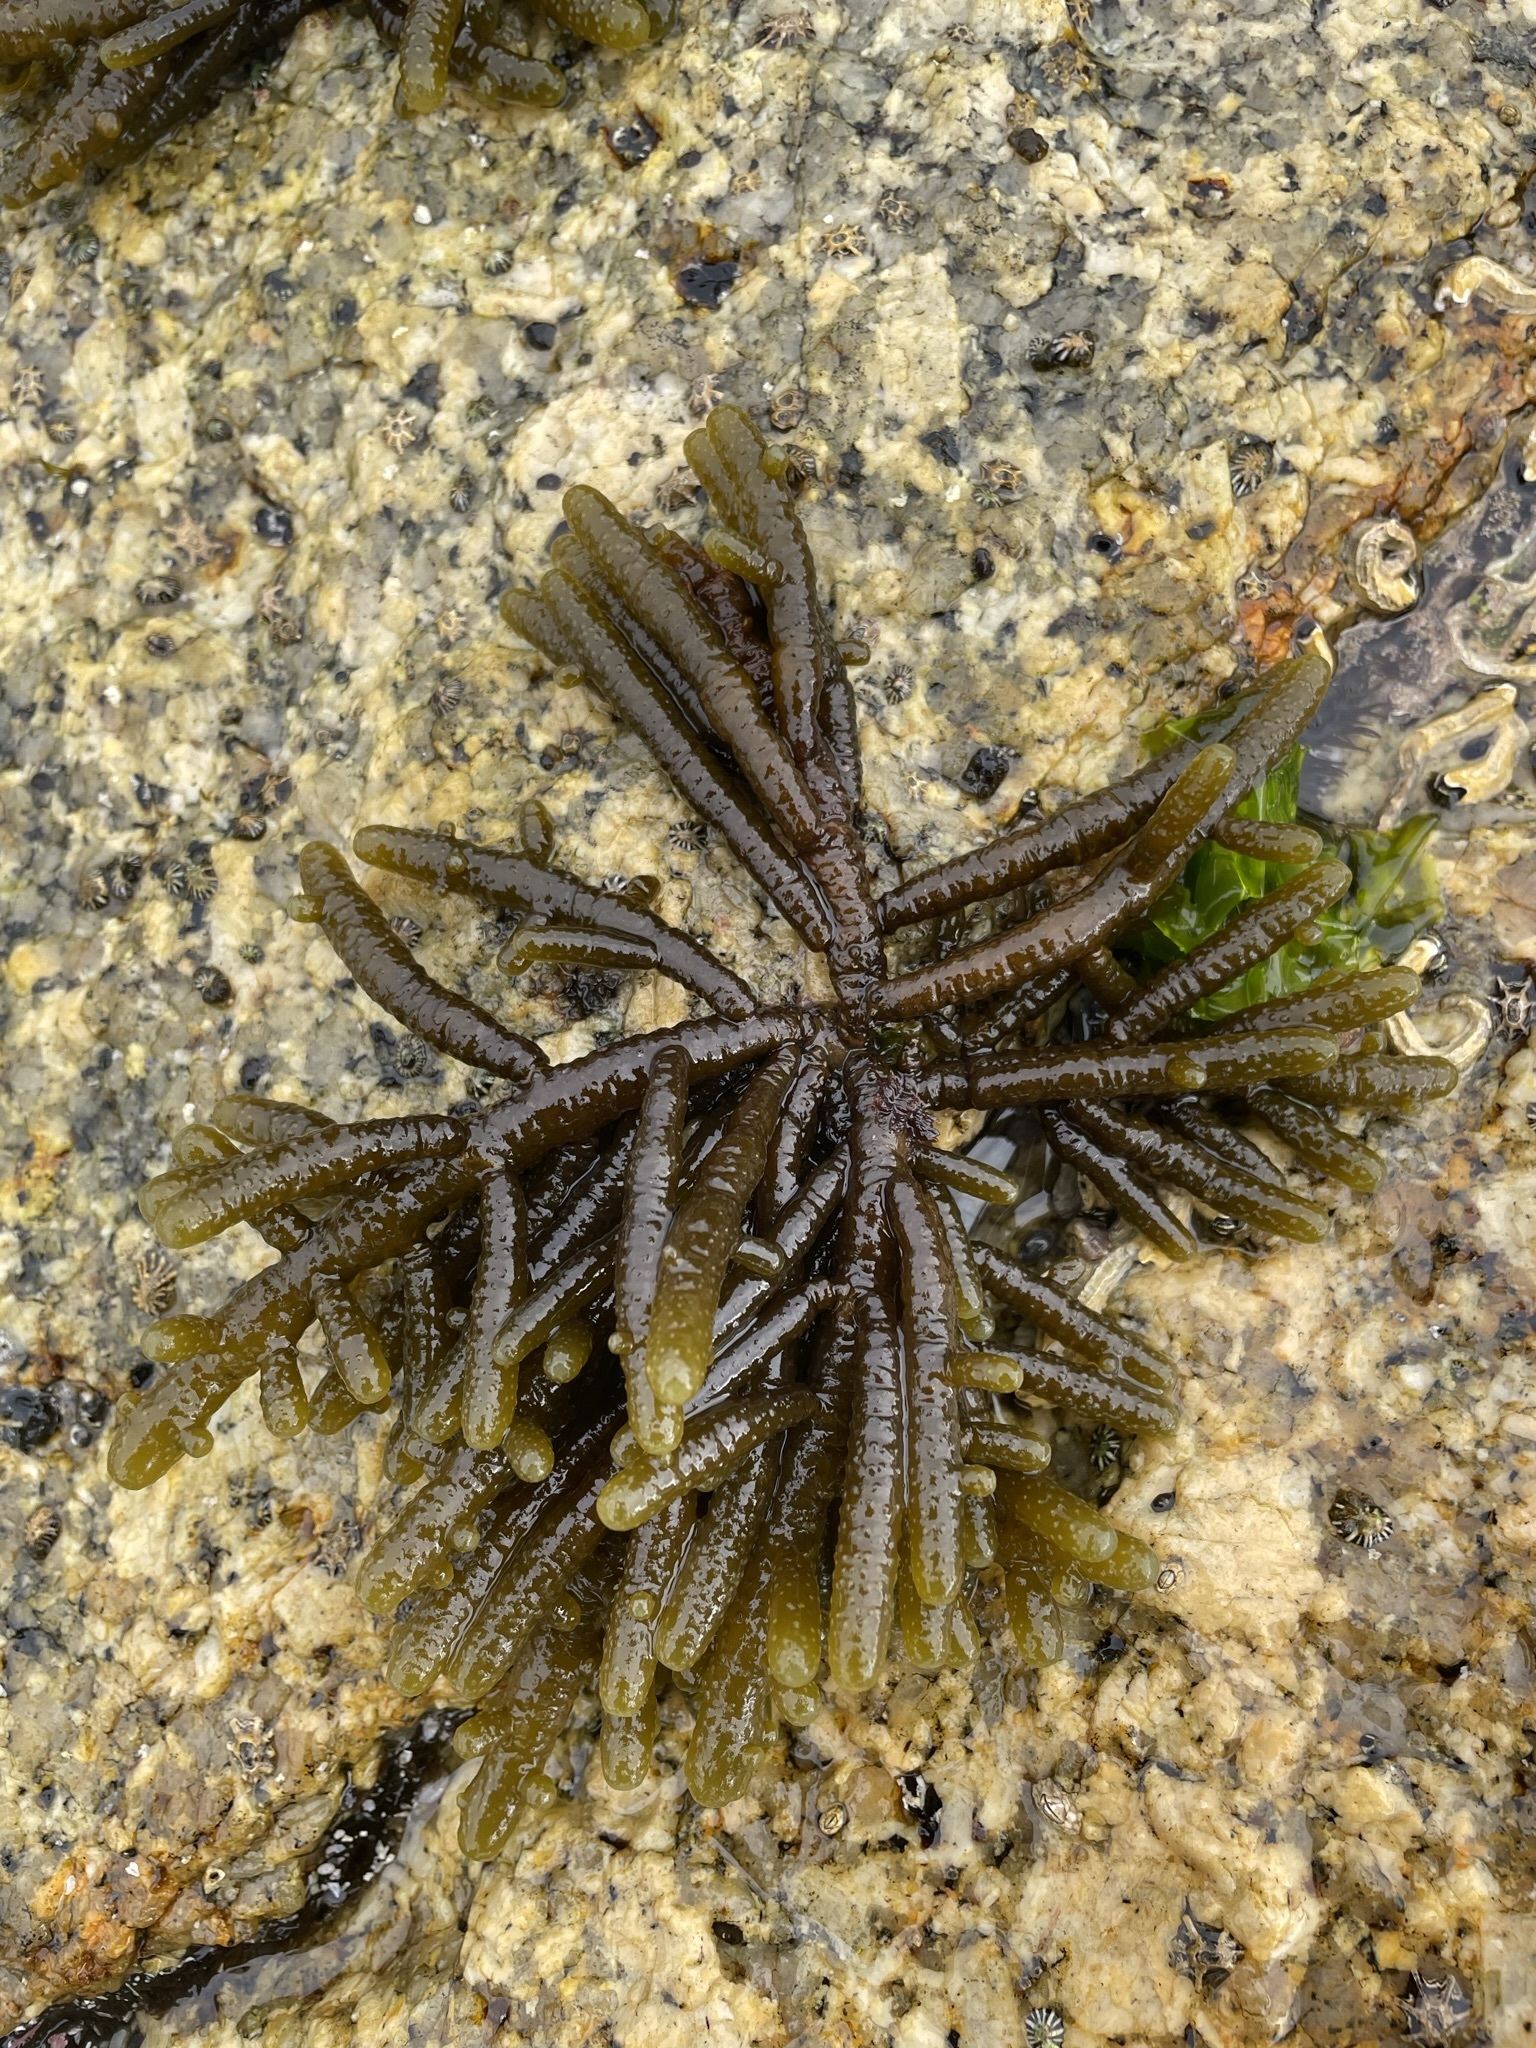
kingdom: Chromista
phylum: Ochrophyta
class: Phaeophyceae
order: Scytothamnales
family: Splachnidiaceae
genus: Splachnidium
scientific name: Splachnidium rugosum
